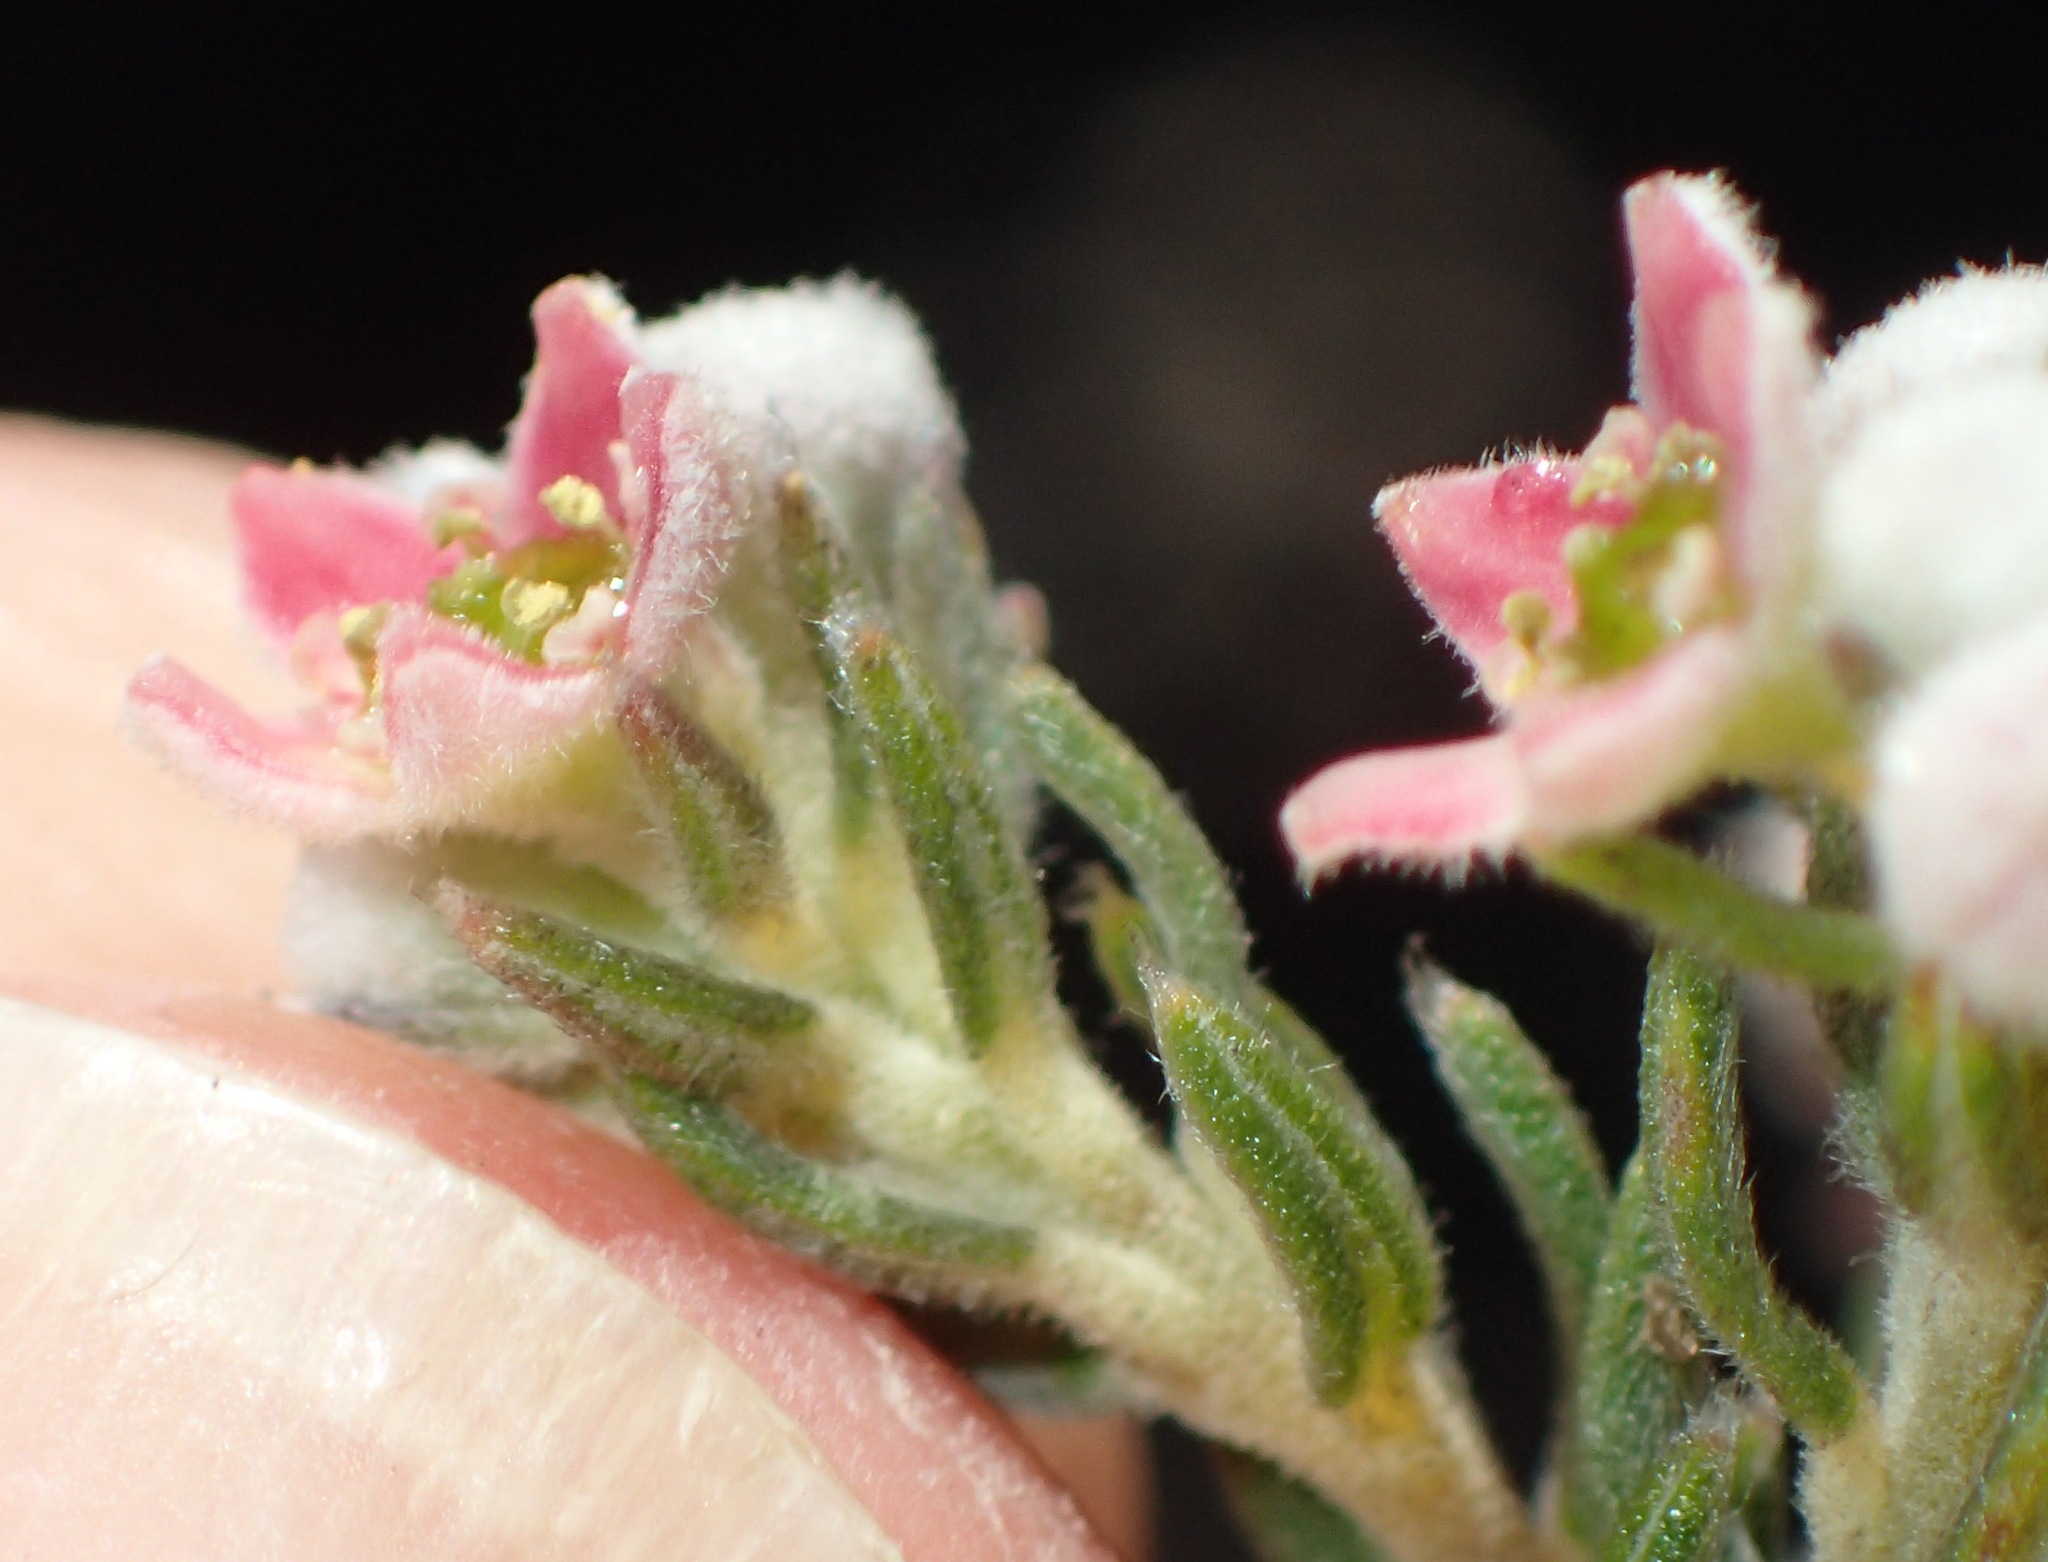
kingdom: Plantae
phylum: Tracheophyta
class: Magnoliopsida
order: Rosales
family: Rhamnaceae
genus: Phylica
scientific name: Phylica purpurea
